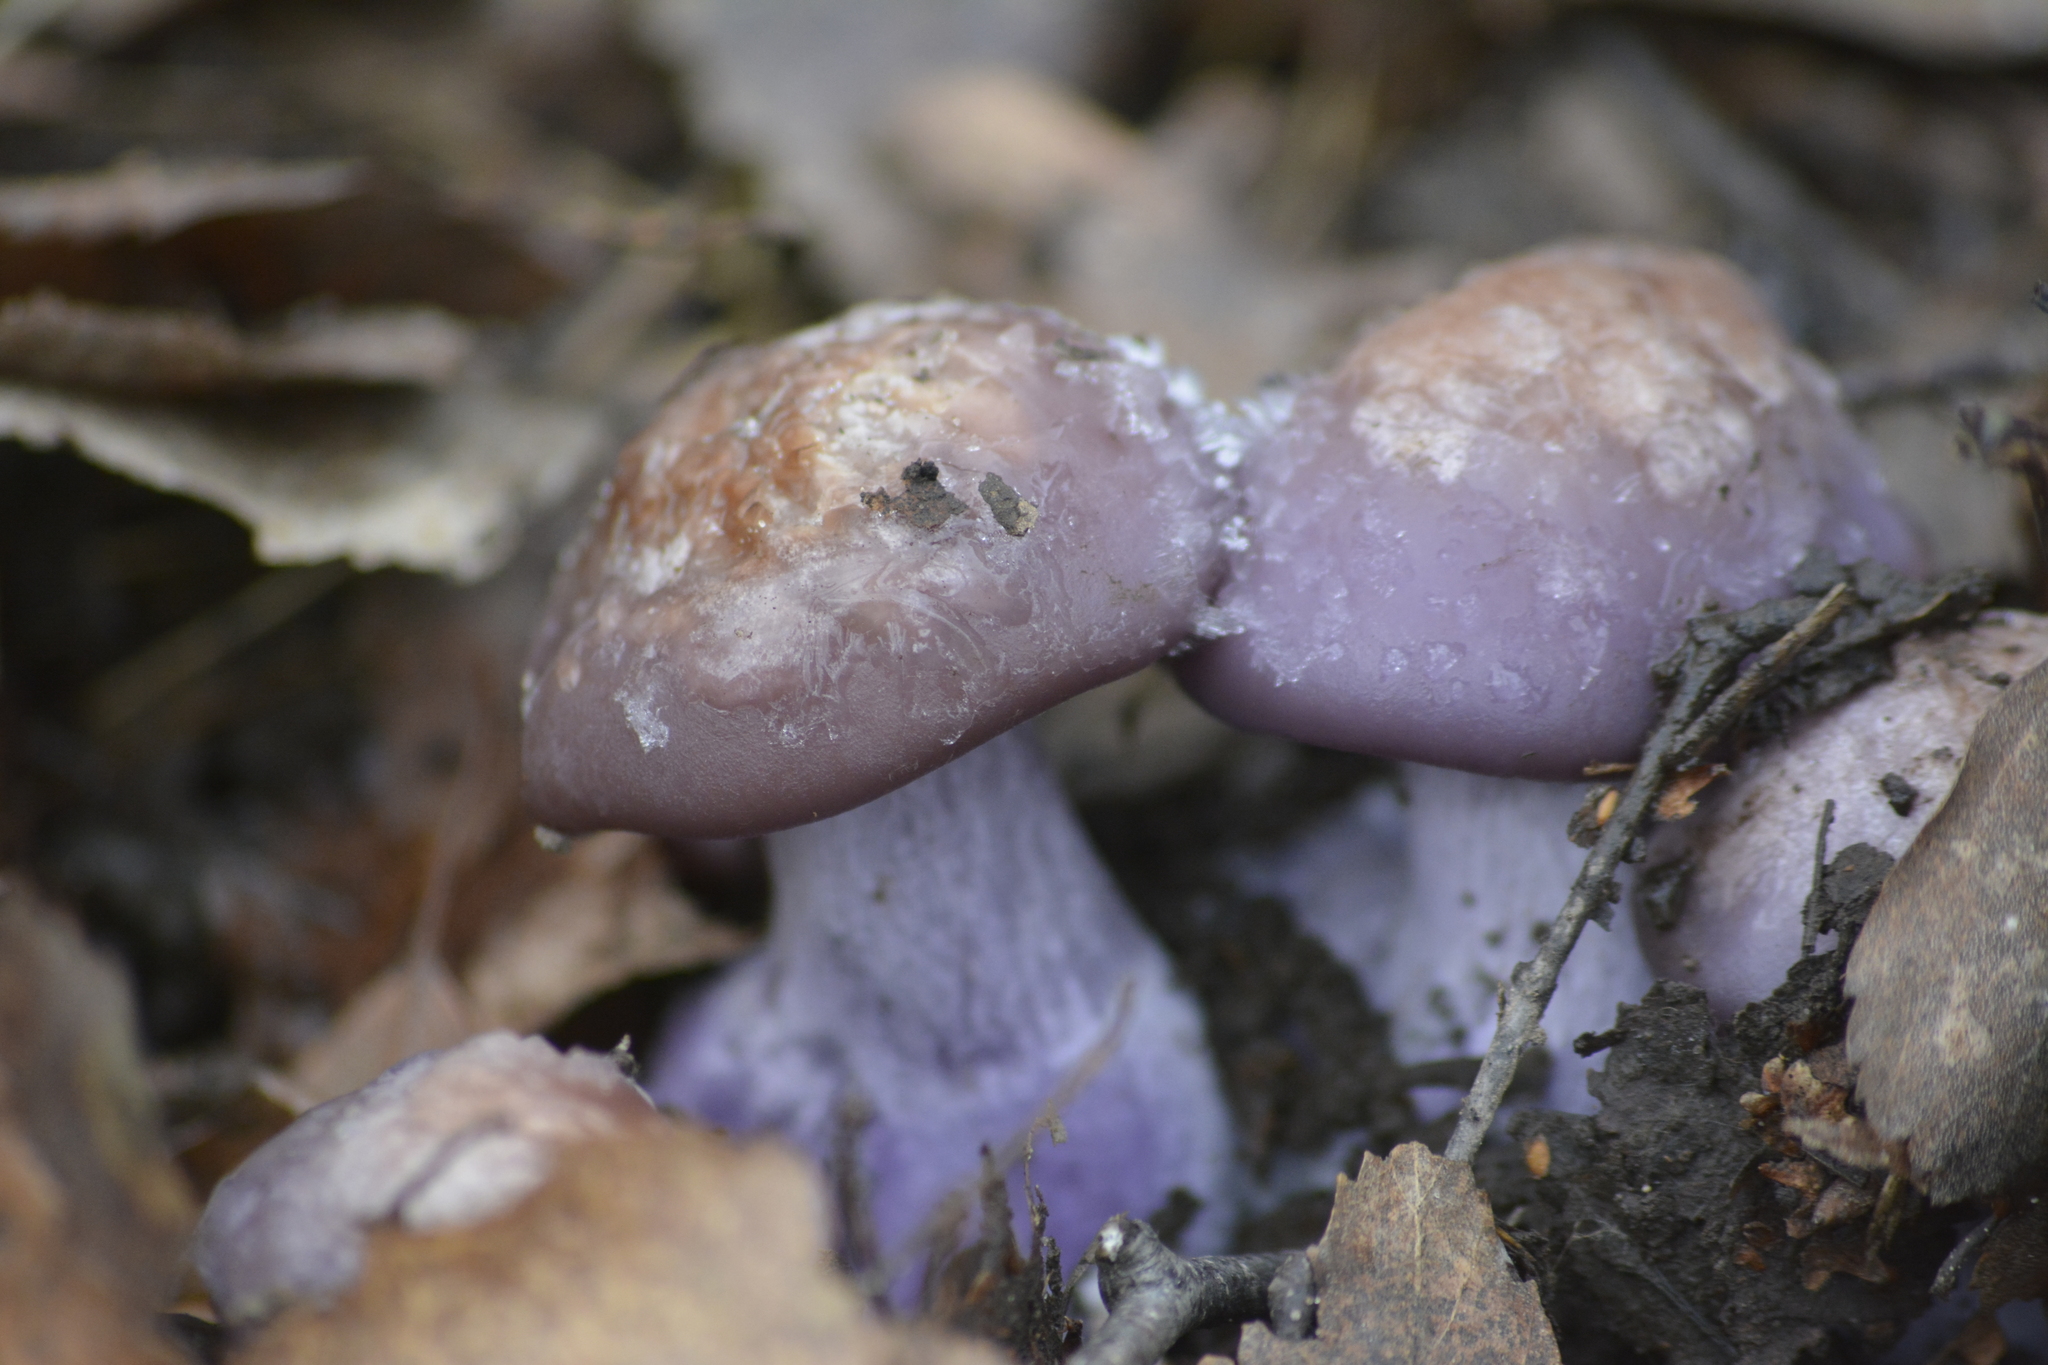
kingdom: Fungi
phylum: Basidiomycota
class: Agaricomycetes
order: Agaricales
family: Tricholomataceae
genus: Collybia
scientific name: Collybia
